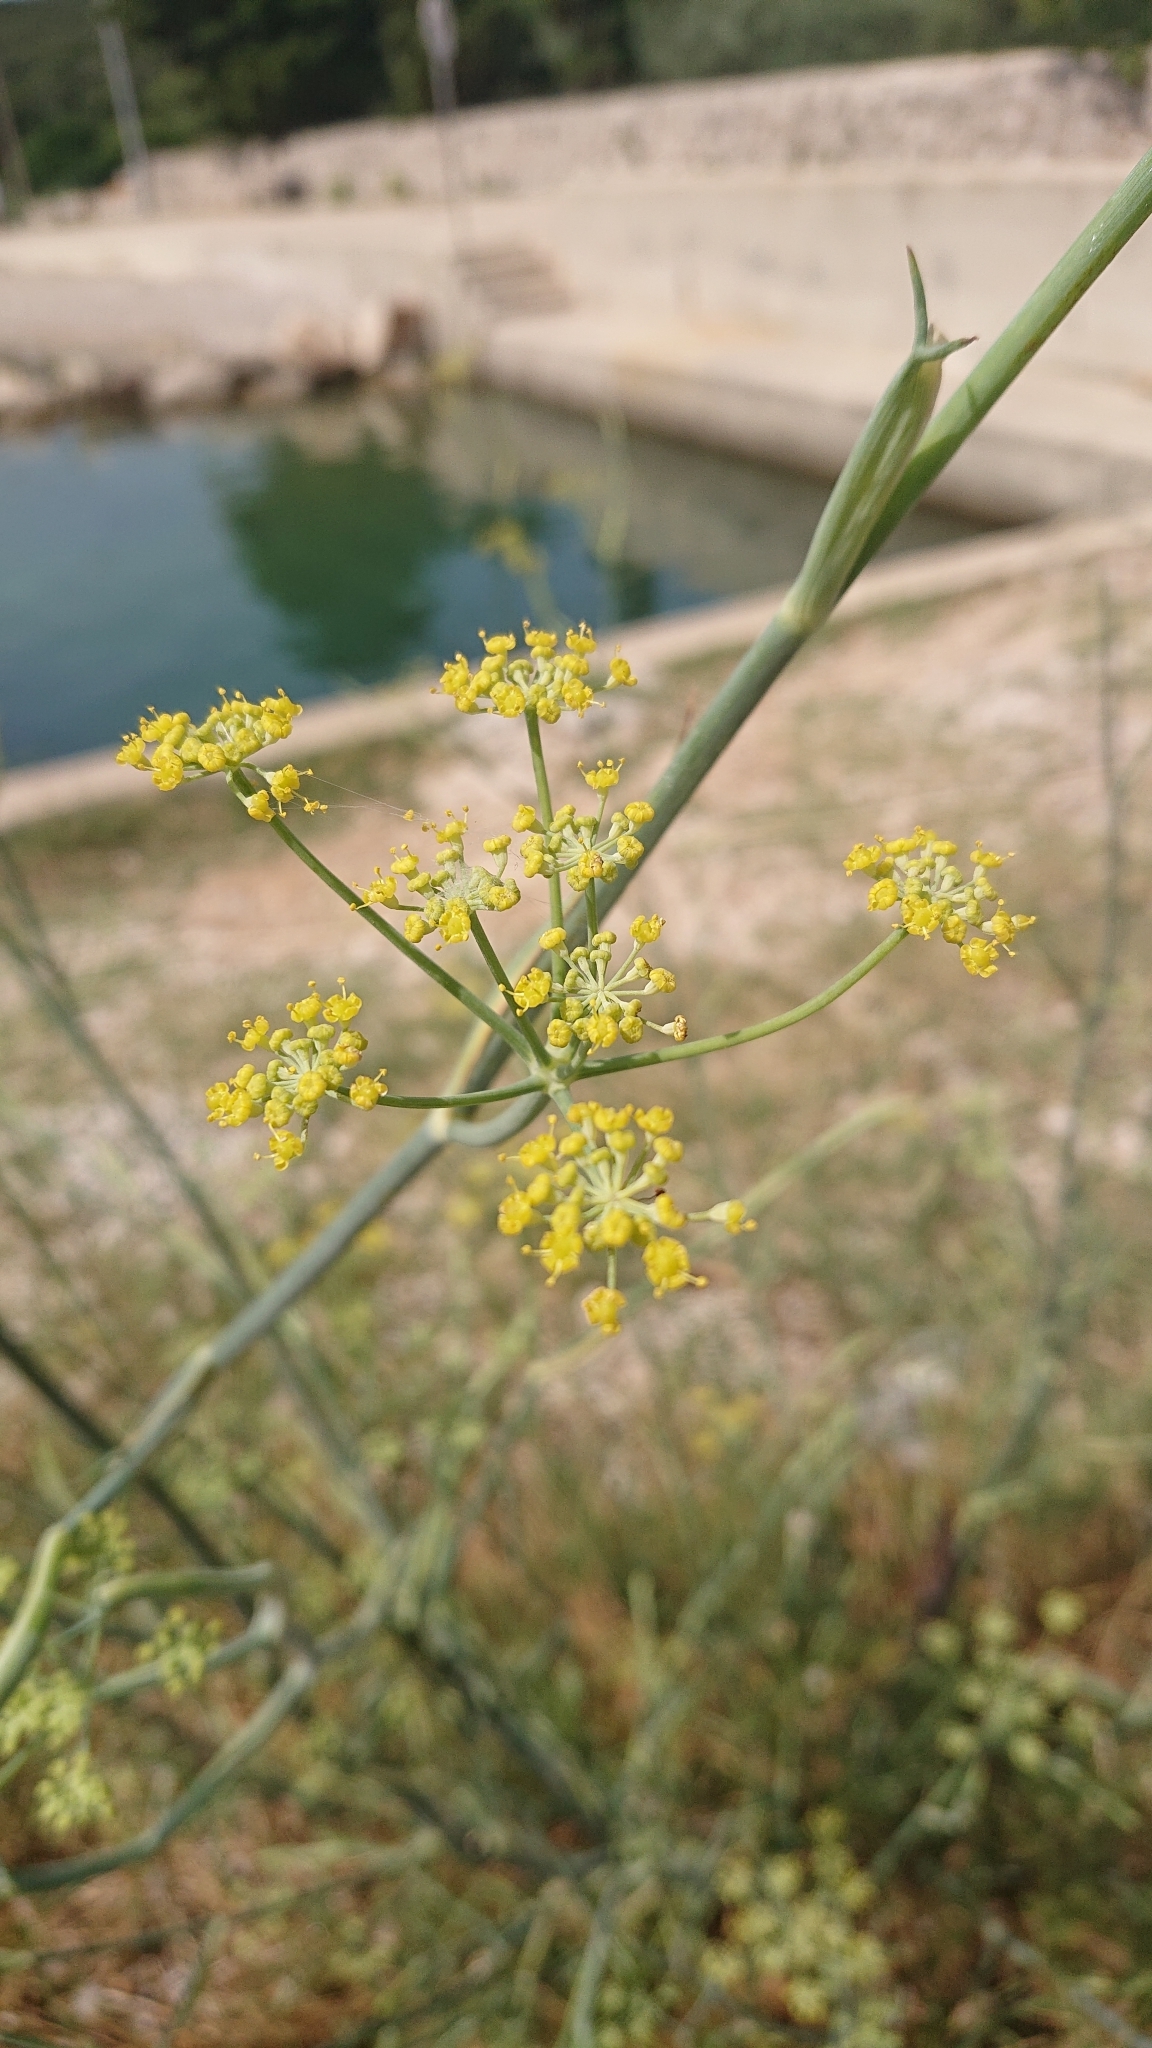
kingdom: Plantae
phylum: Tracheophyta
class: Magnoliopsida
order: Apiales
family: Apiaceae
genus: Foeniculum
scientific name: Foeniculum vulgare
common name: Fennel
